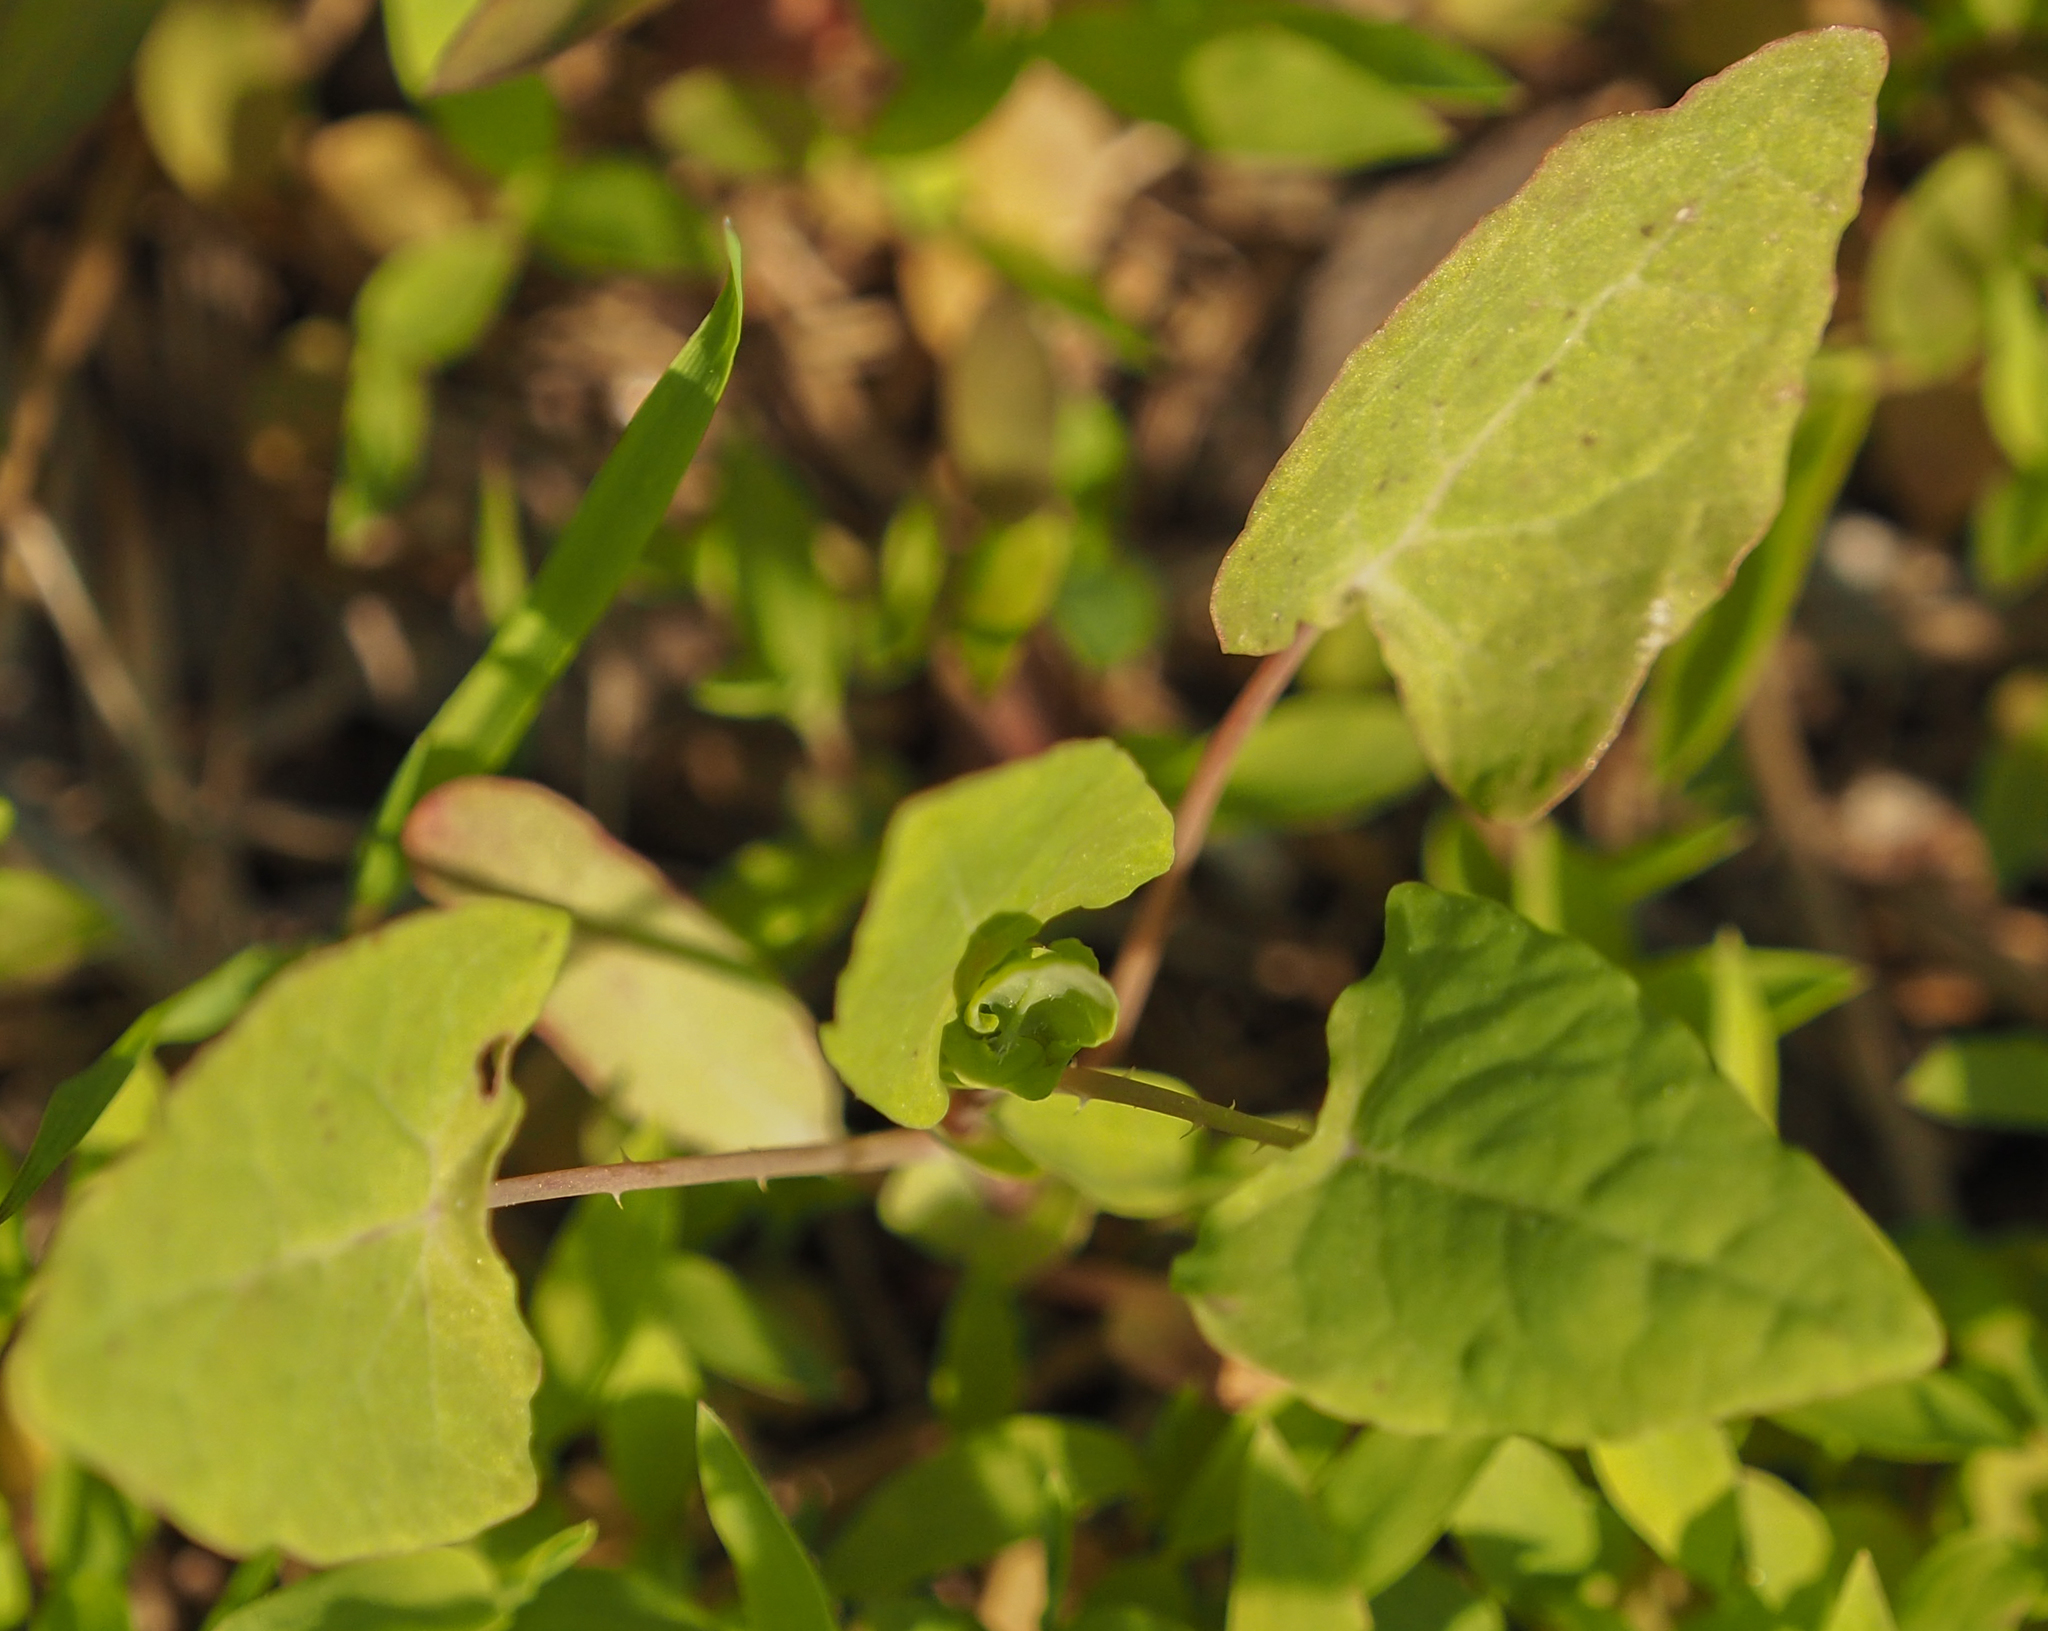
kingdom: Plantae
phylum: Tracheophyta
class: Magnoliopsida
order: Caryophyllales
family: Polygonaceae
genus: Persicaria
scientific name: Persicaria perfoliata
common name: Asiatic tearthumb
